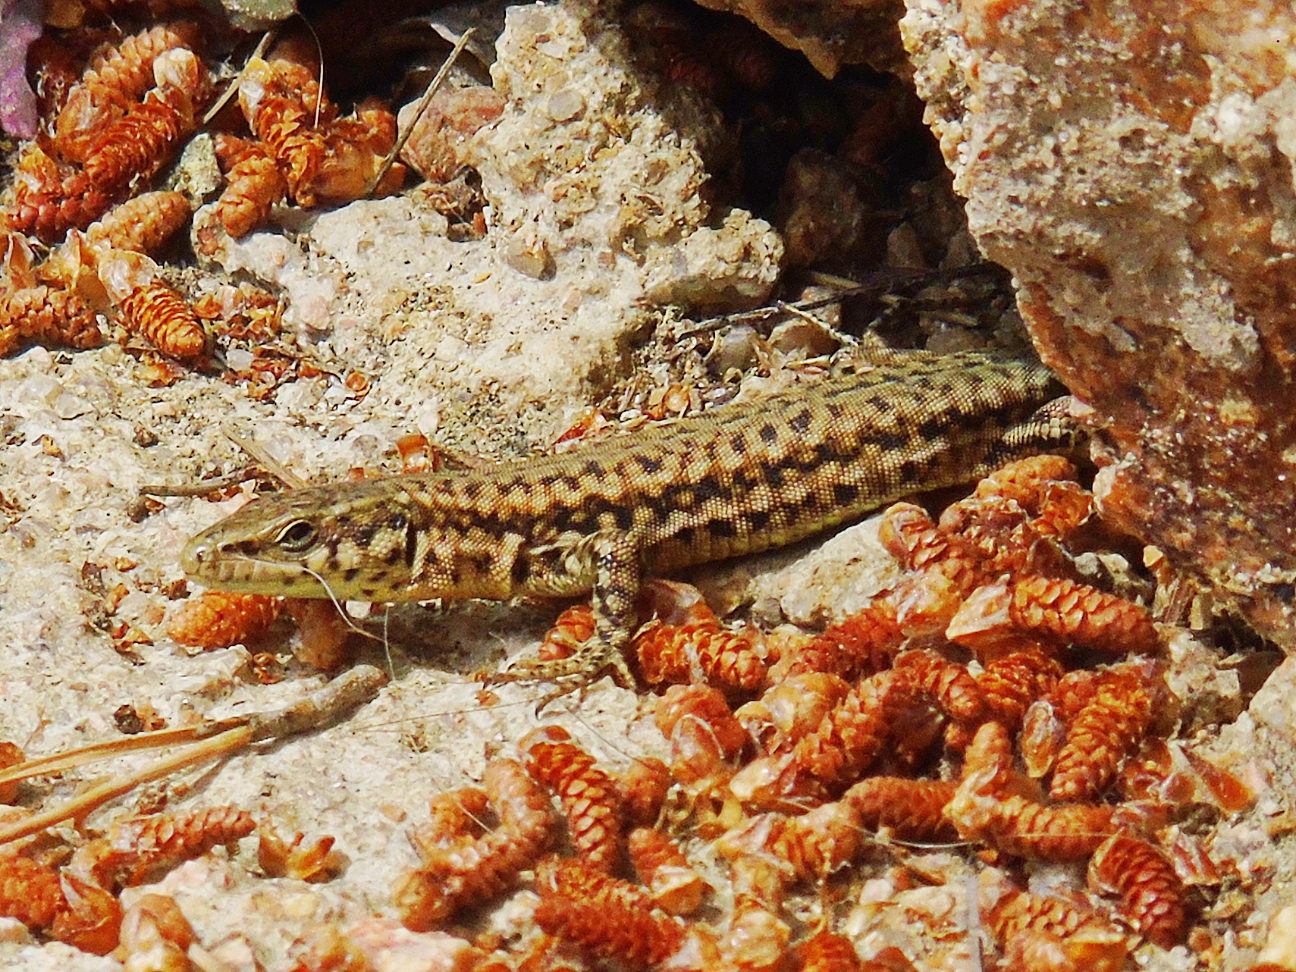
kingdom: Animalia
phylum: Chordata
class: Squamata
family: Lacertidae
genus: Podarcis
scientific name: Podarcis liolepis
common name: Catalonian wall lizard
